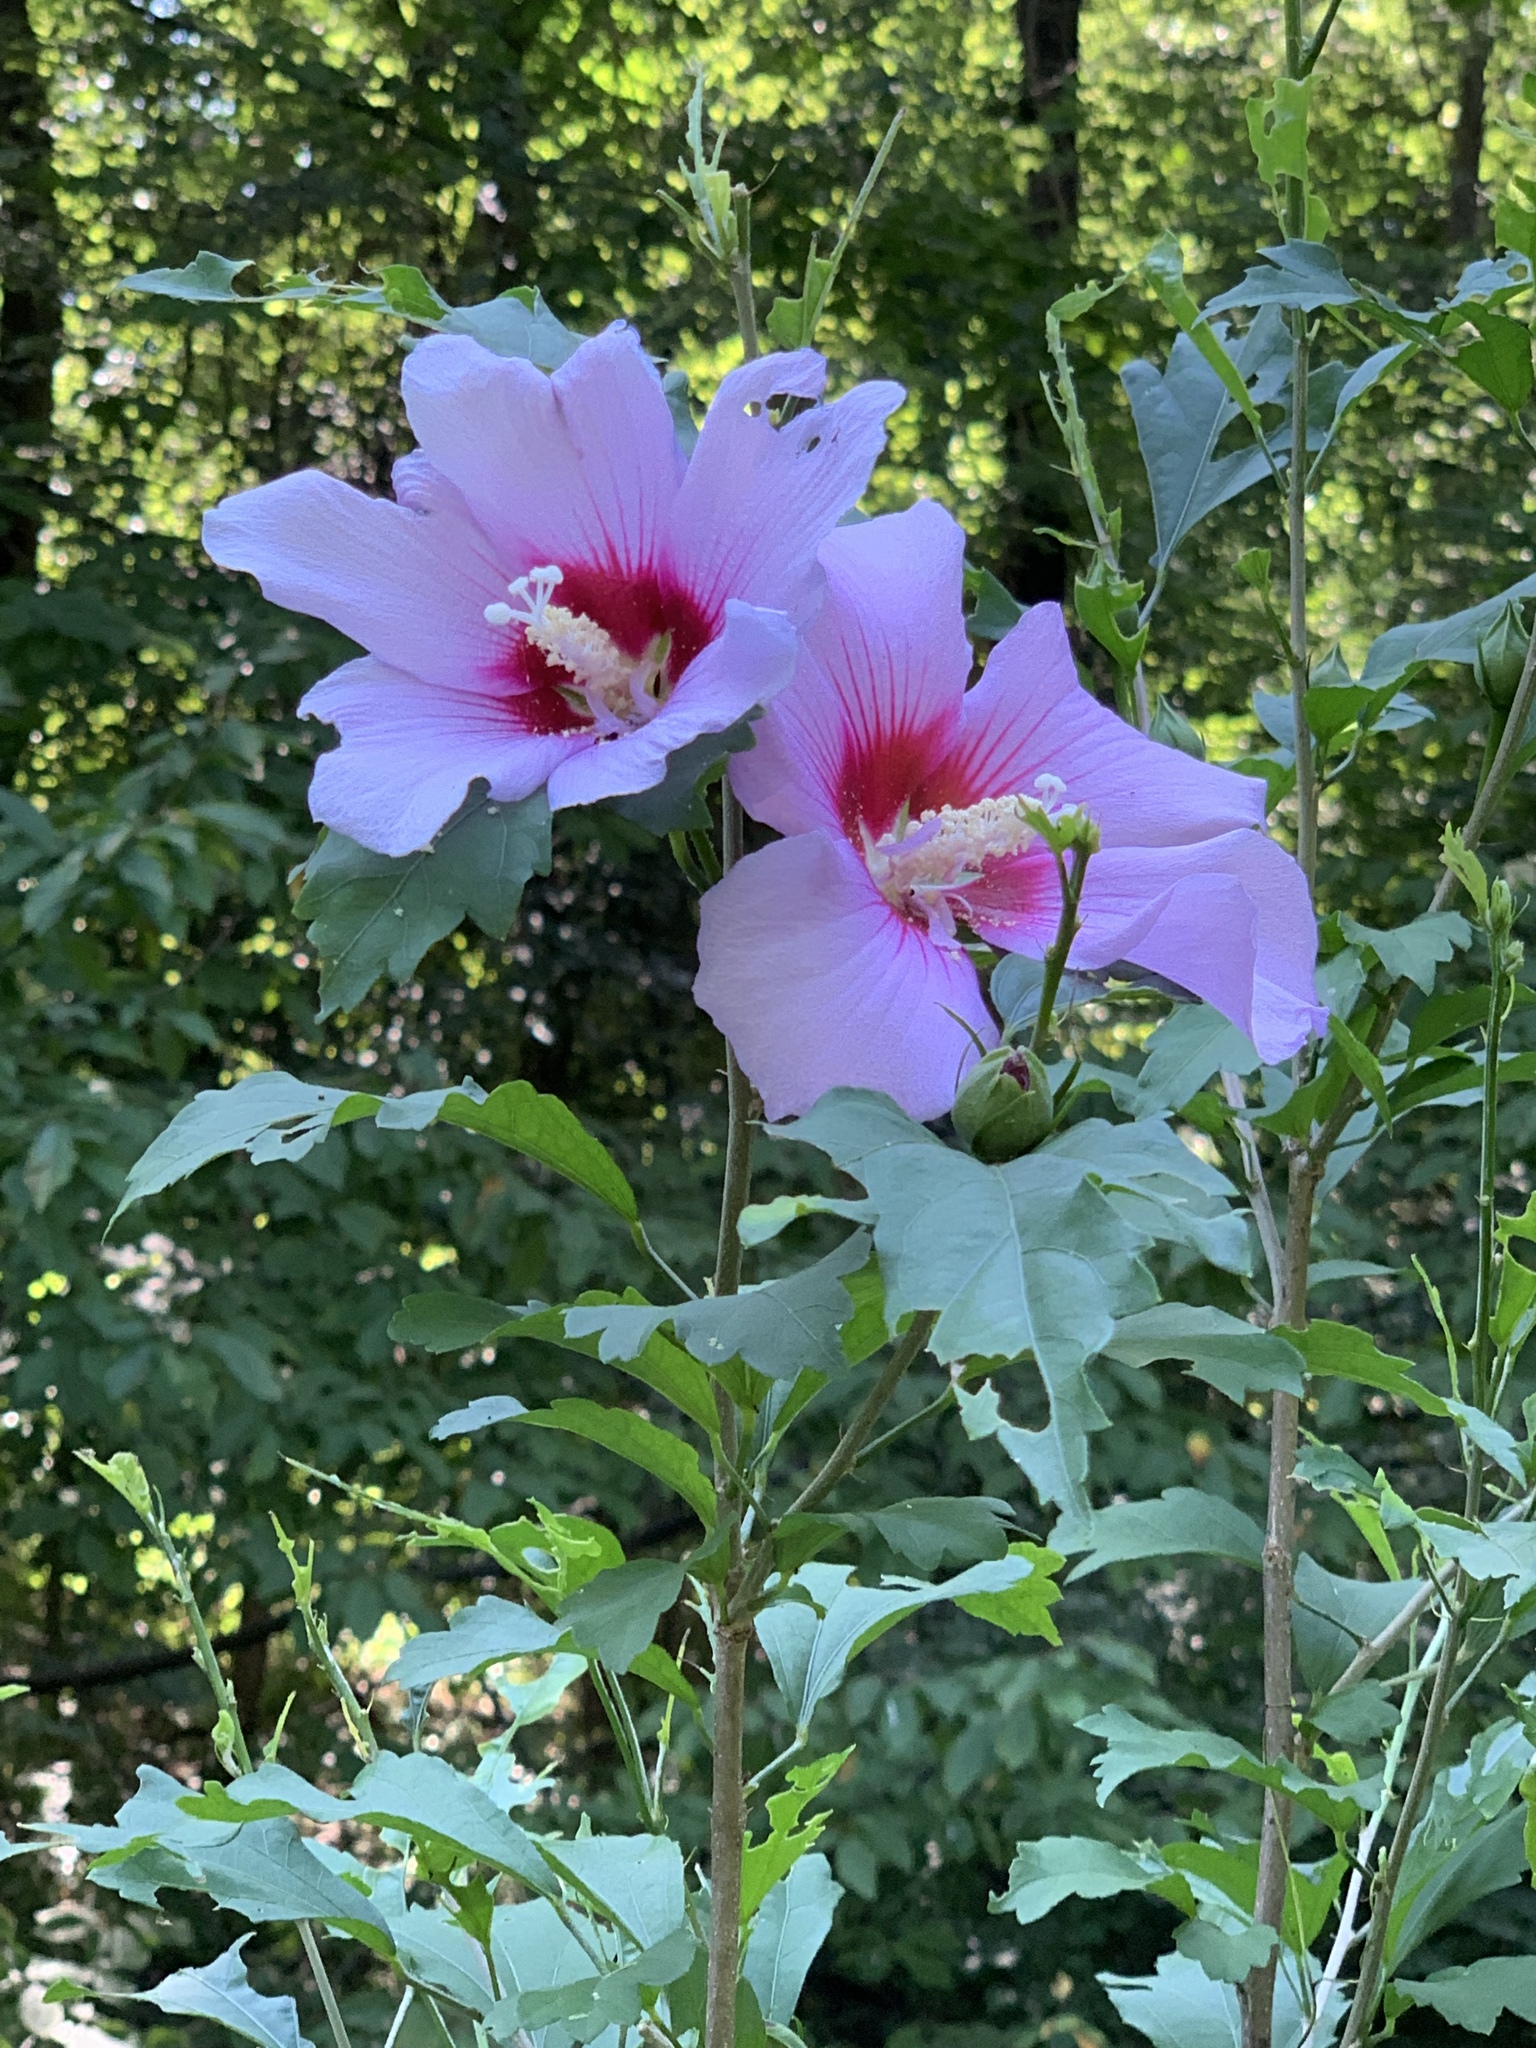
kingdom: Plantae
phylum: Tracheophyta
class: Magnoliopsida
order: Malvales
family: Malvaceae
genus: Hibiscus
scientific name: Hibiscus syriacus
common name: Syrian ketmia
